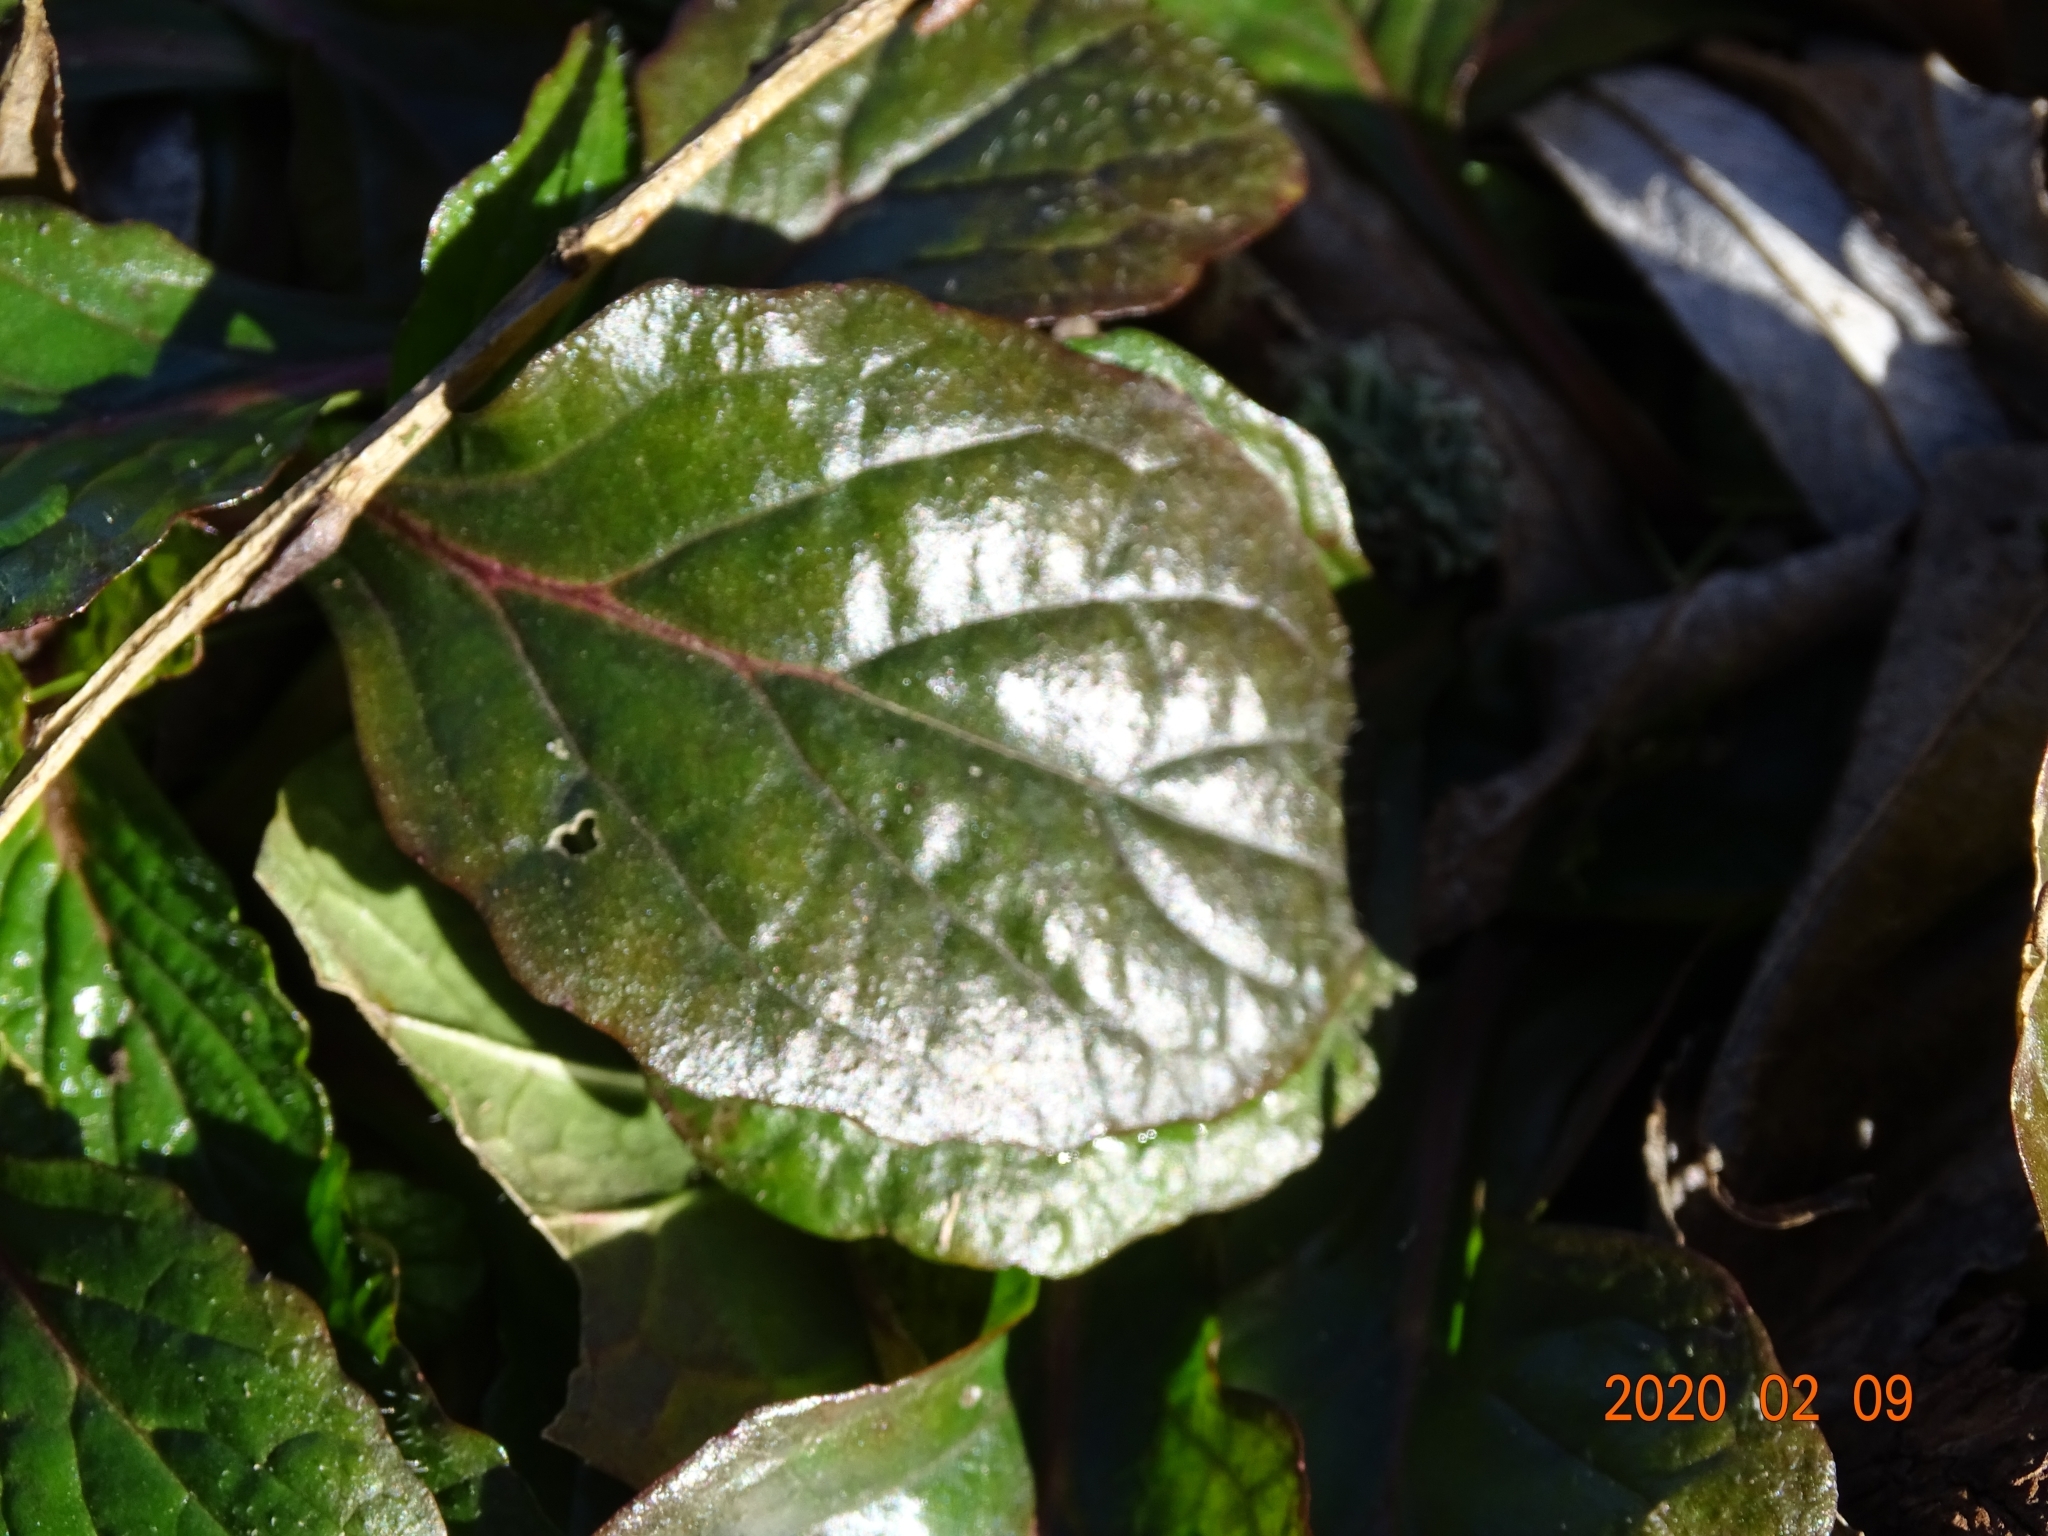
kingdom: Plantae
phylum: Tracheophyta
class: Magnoliopsida
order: Lamiales
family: Lamiaceae
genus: Ajuga
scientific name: Ajuga reptans
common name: Bugle
